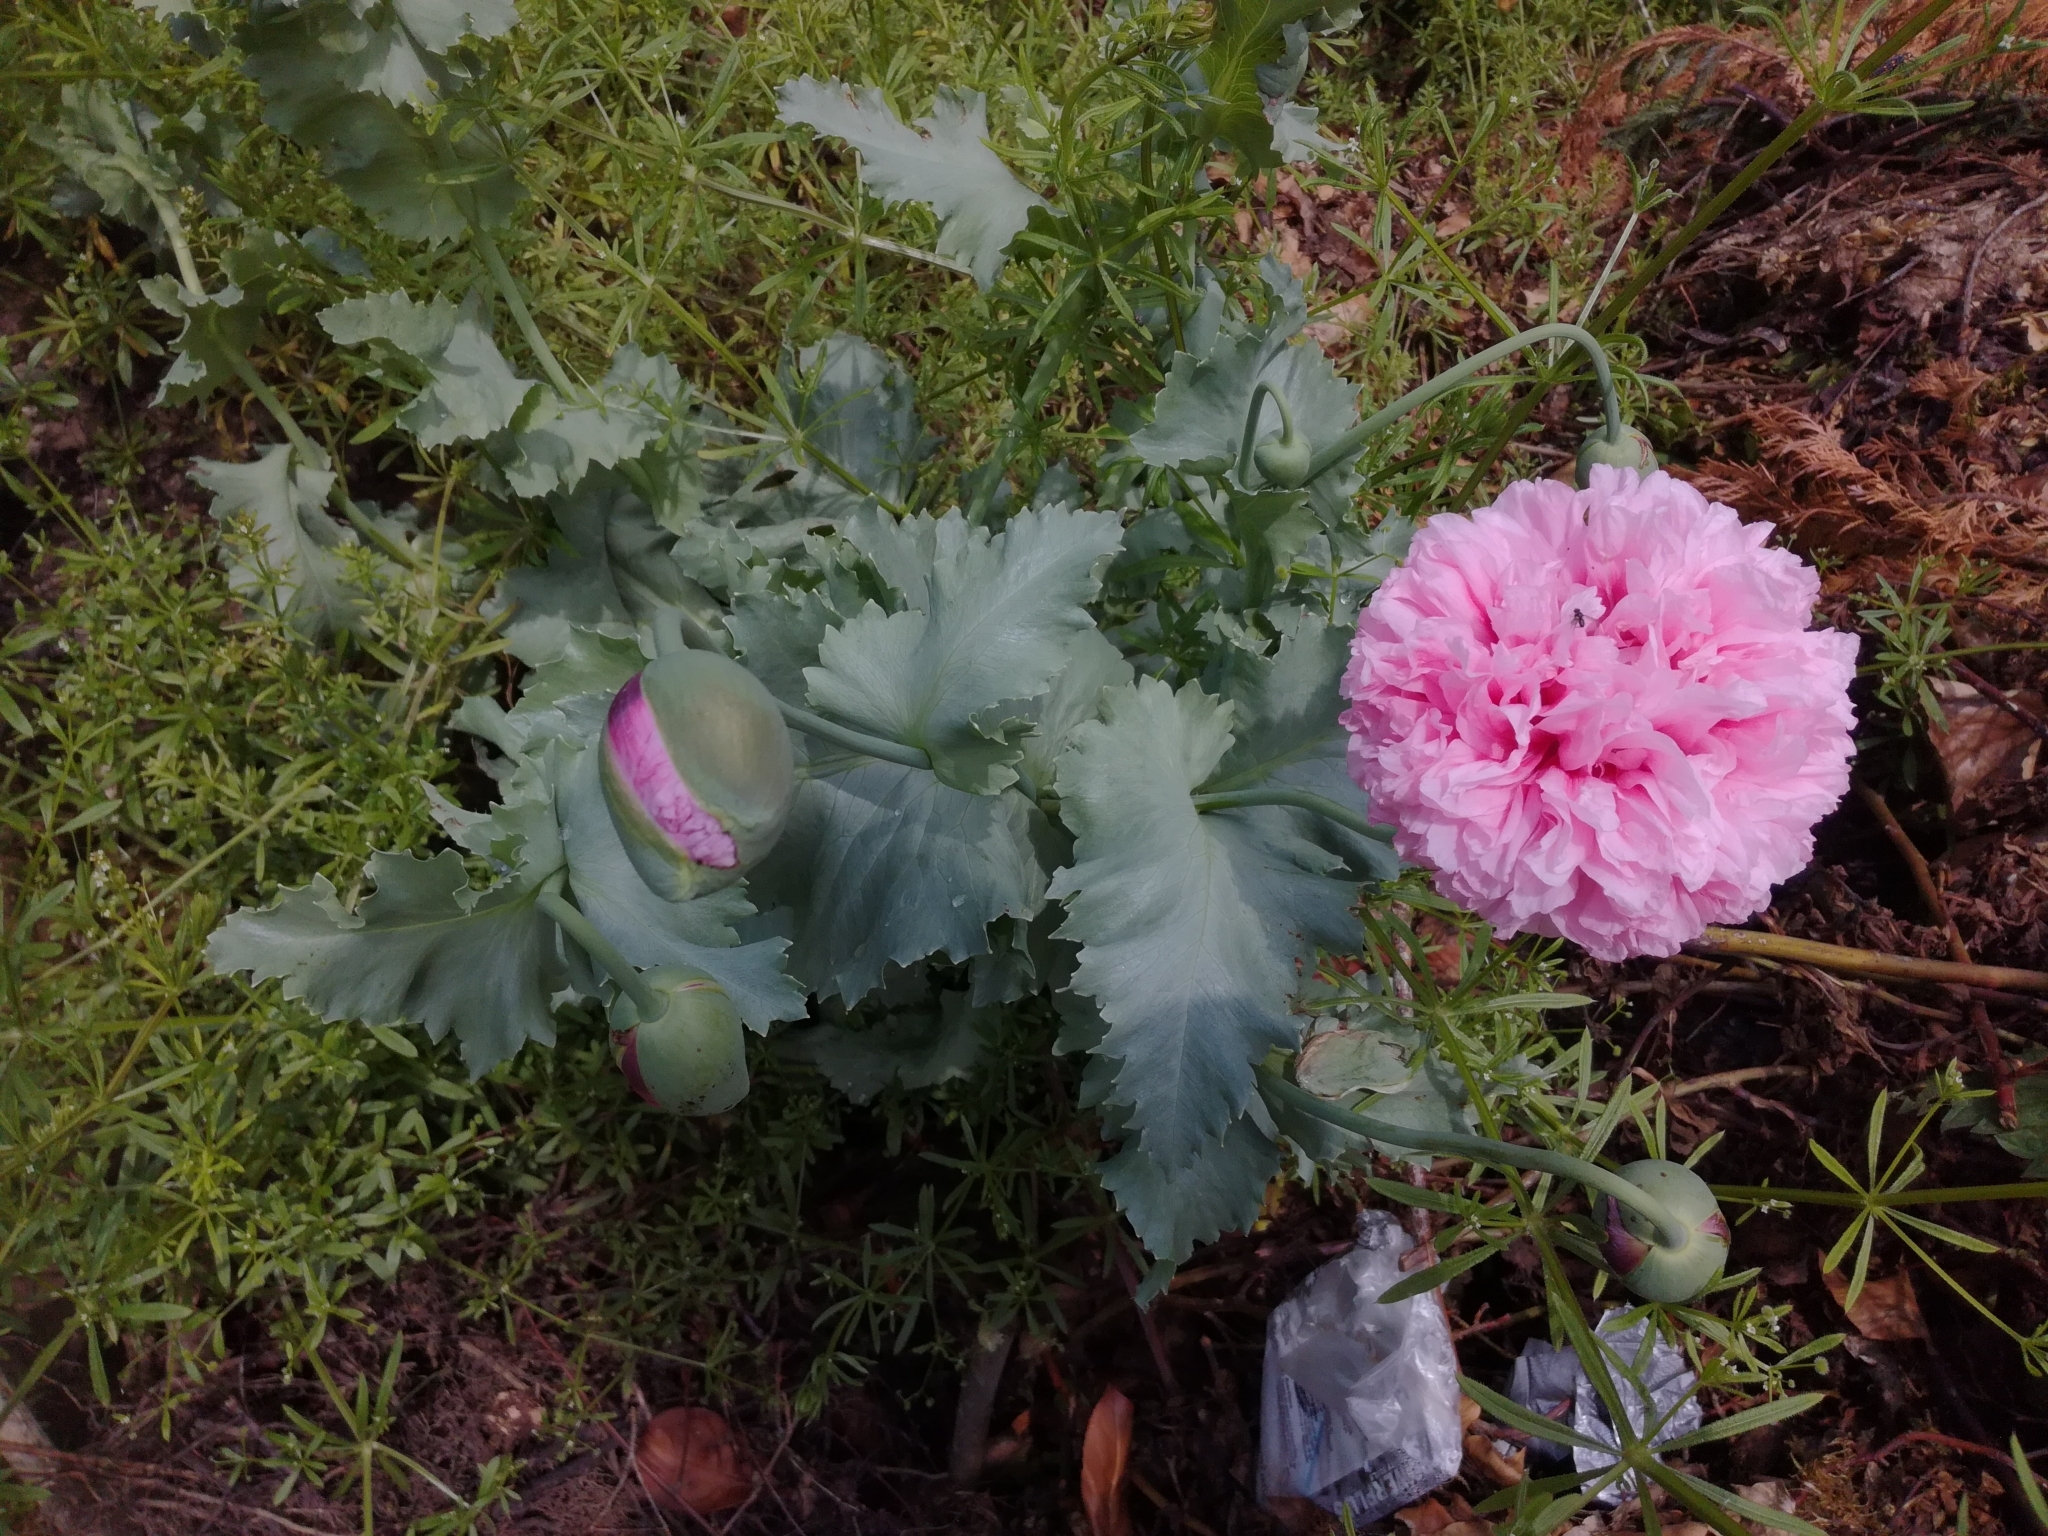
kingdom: Plantae
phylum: Tracheophyta
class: Magnoliopsida
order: Ranunculales
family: Papaveraceae
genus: Papaver
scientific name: Papaver somniferum
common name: Opium poppy
